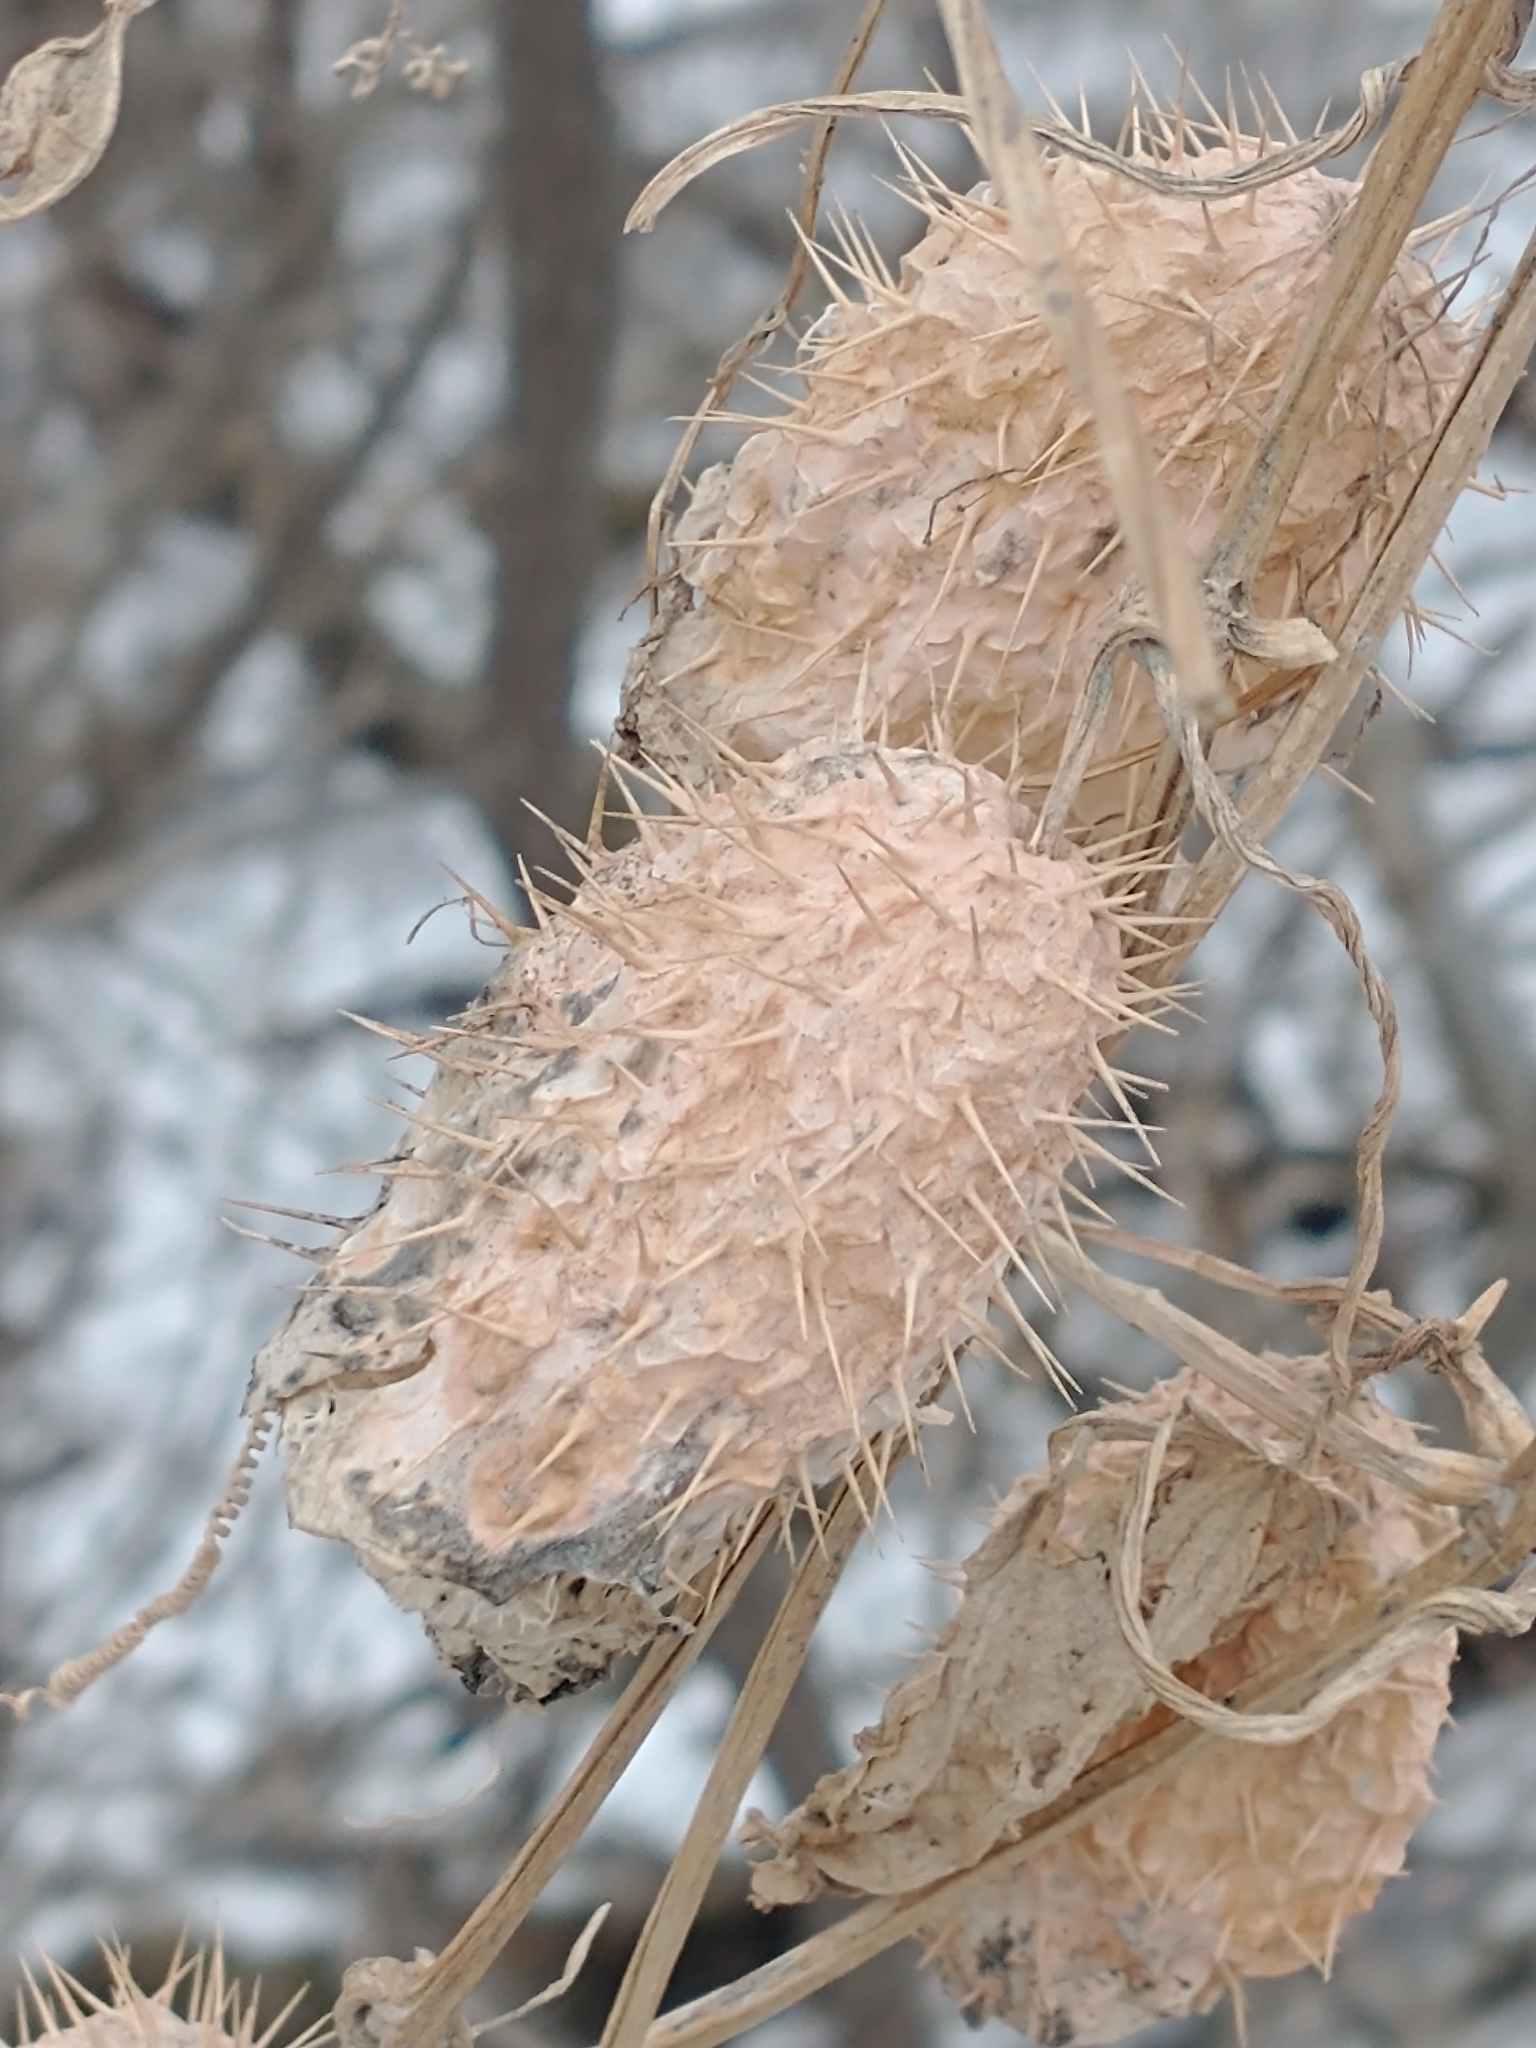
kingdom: Plantae
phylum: Tracheophyta
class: Magnoliopsida
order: Cucurbitales
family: Cucurbitaceae
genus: Echinocystis
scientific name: Echinocystis lobata
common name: Wild cucumber
